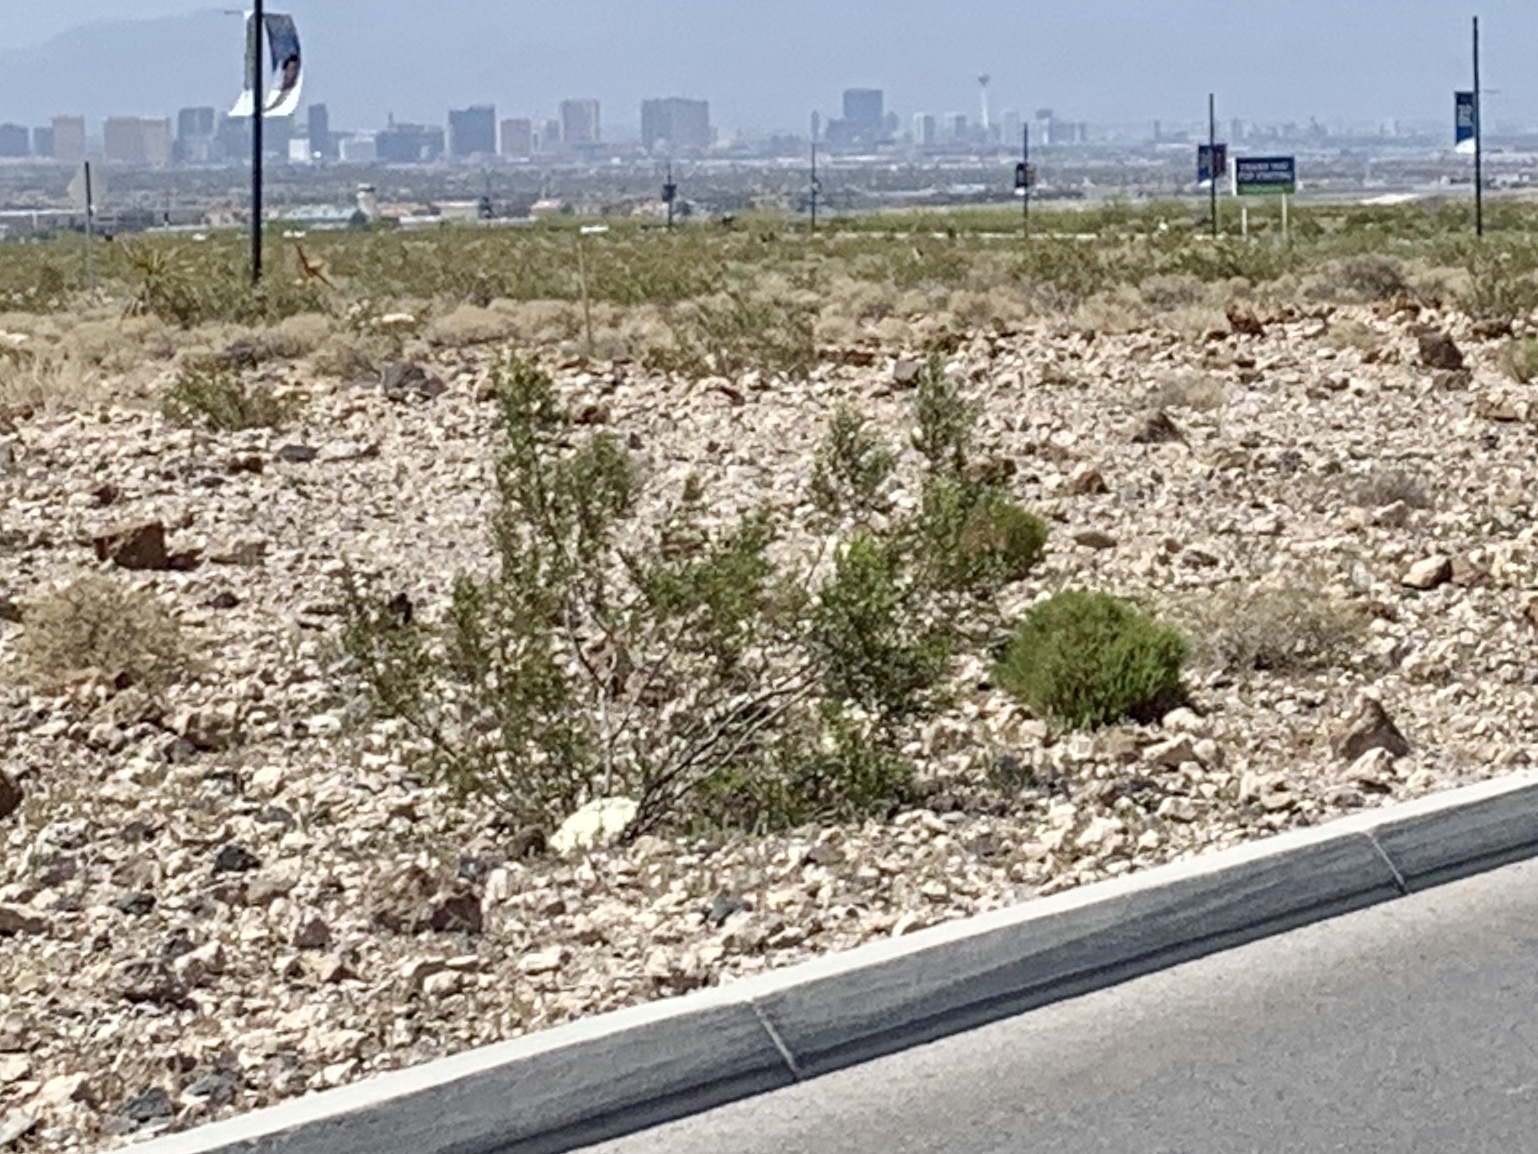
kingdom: Plantae
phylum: Tracheophyta
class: Magnoliopsida
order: Zygophyllales
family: Zygophyllaceae
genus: Larrea
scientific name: Larrea tridentata
